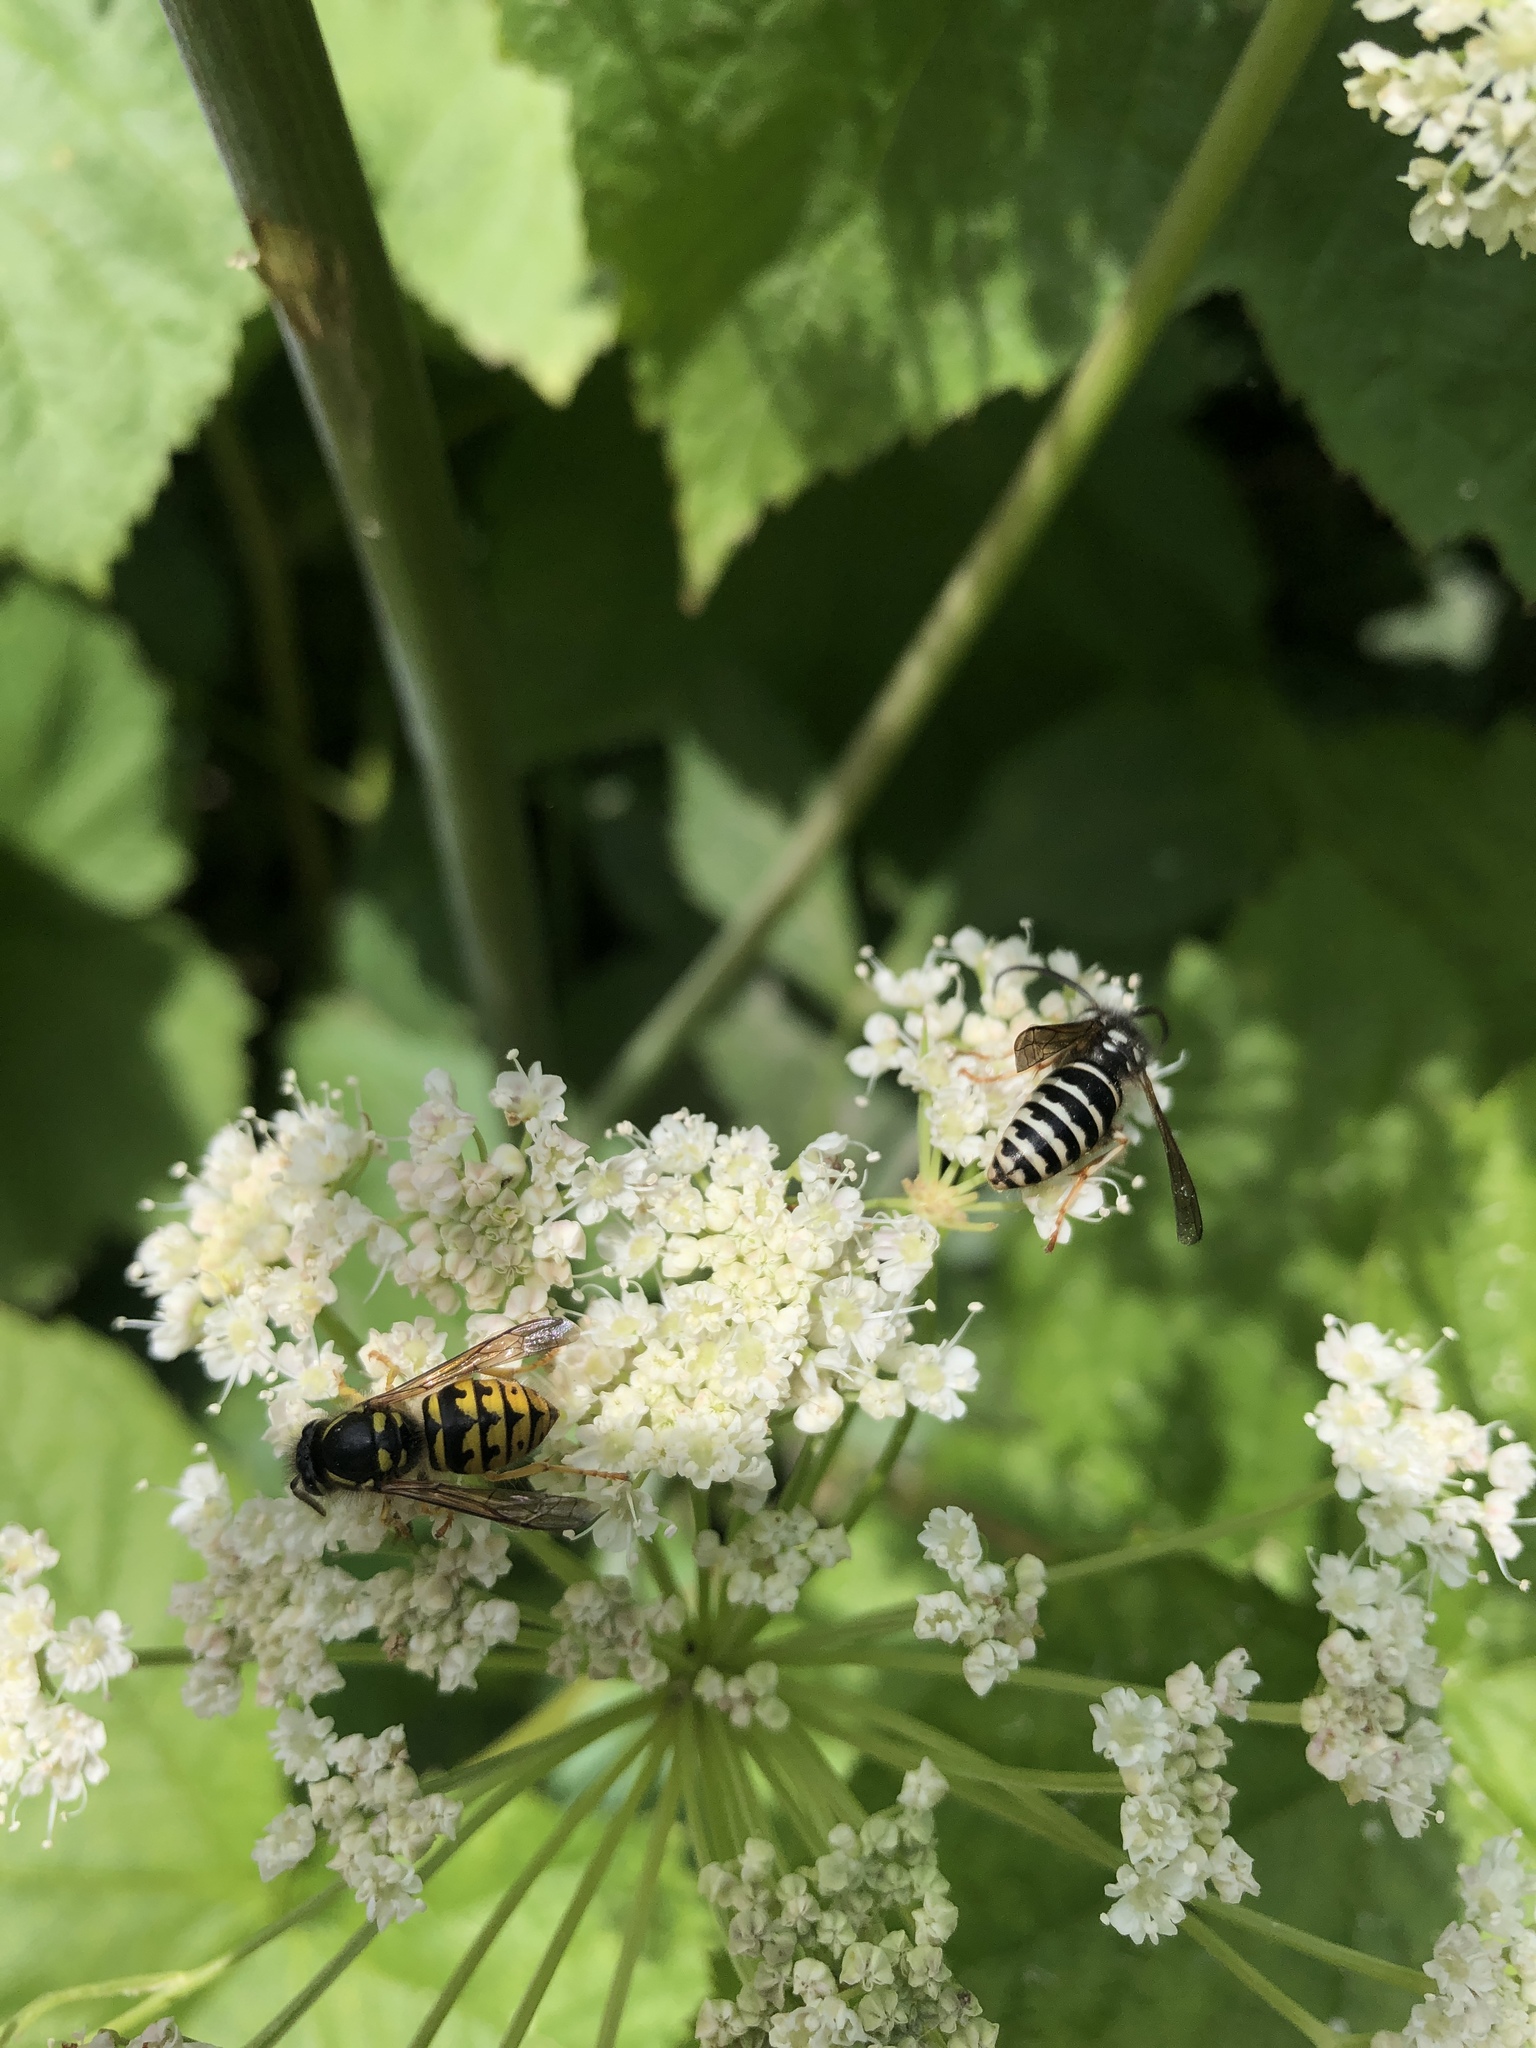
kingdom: Animalia
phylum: Arthropoda
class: Insecta
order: Hymenoptera
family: Vespidae
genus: Dolichovespula
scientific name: Dolichovespula arenaria
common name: Aerial yellowjacket
